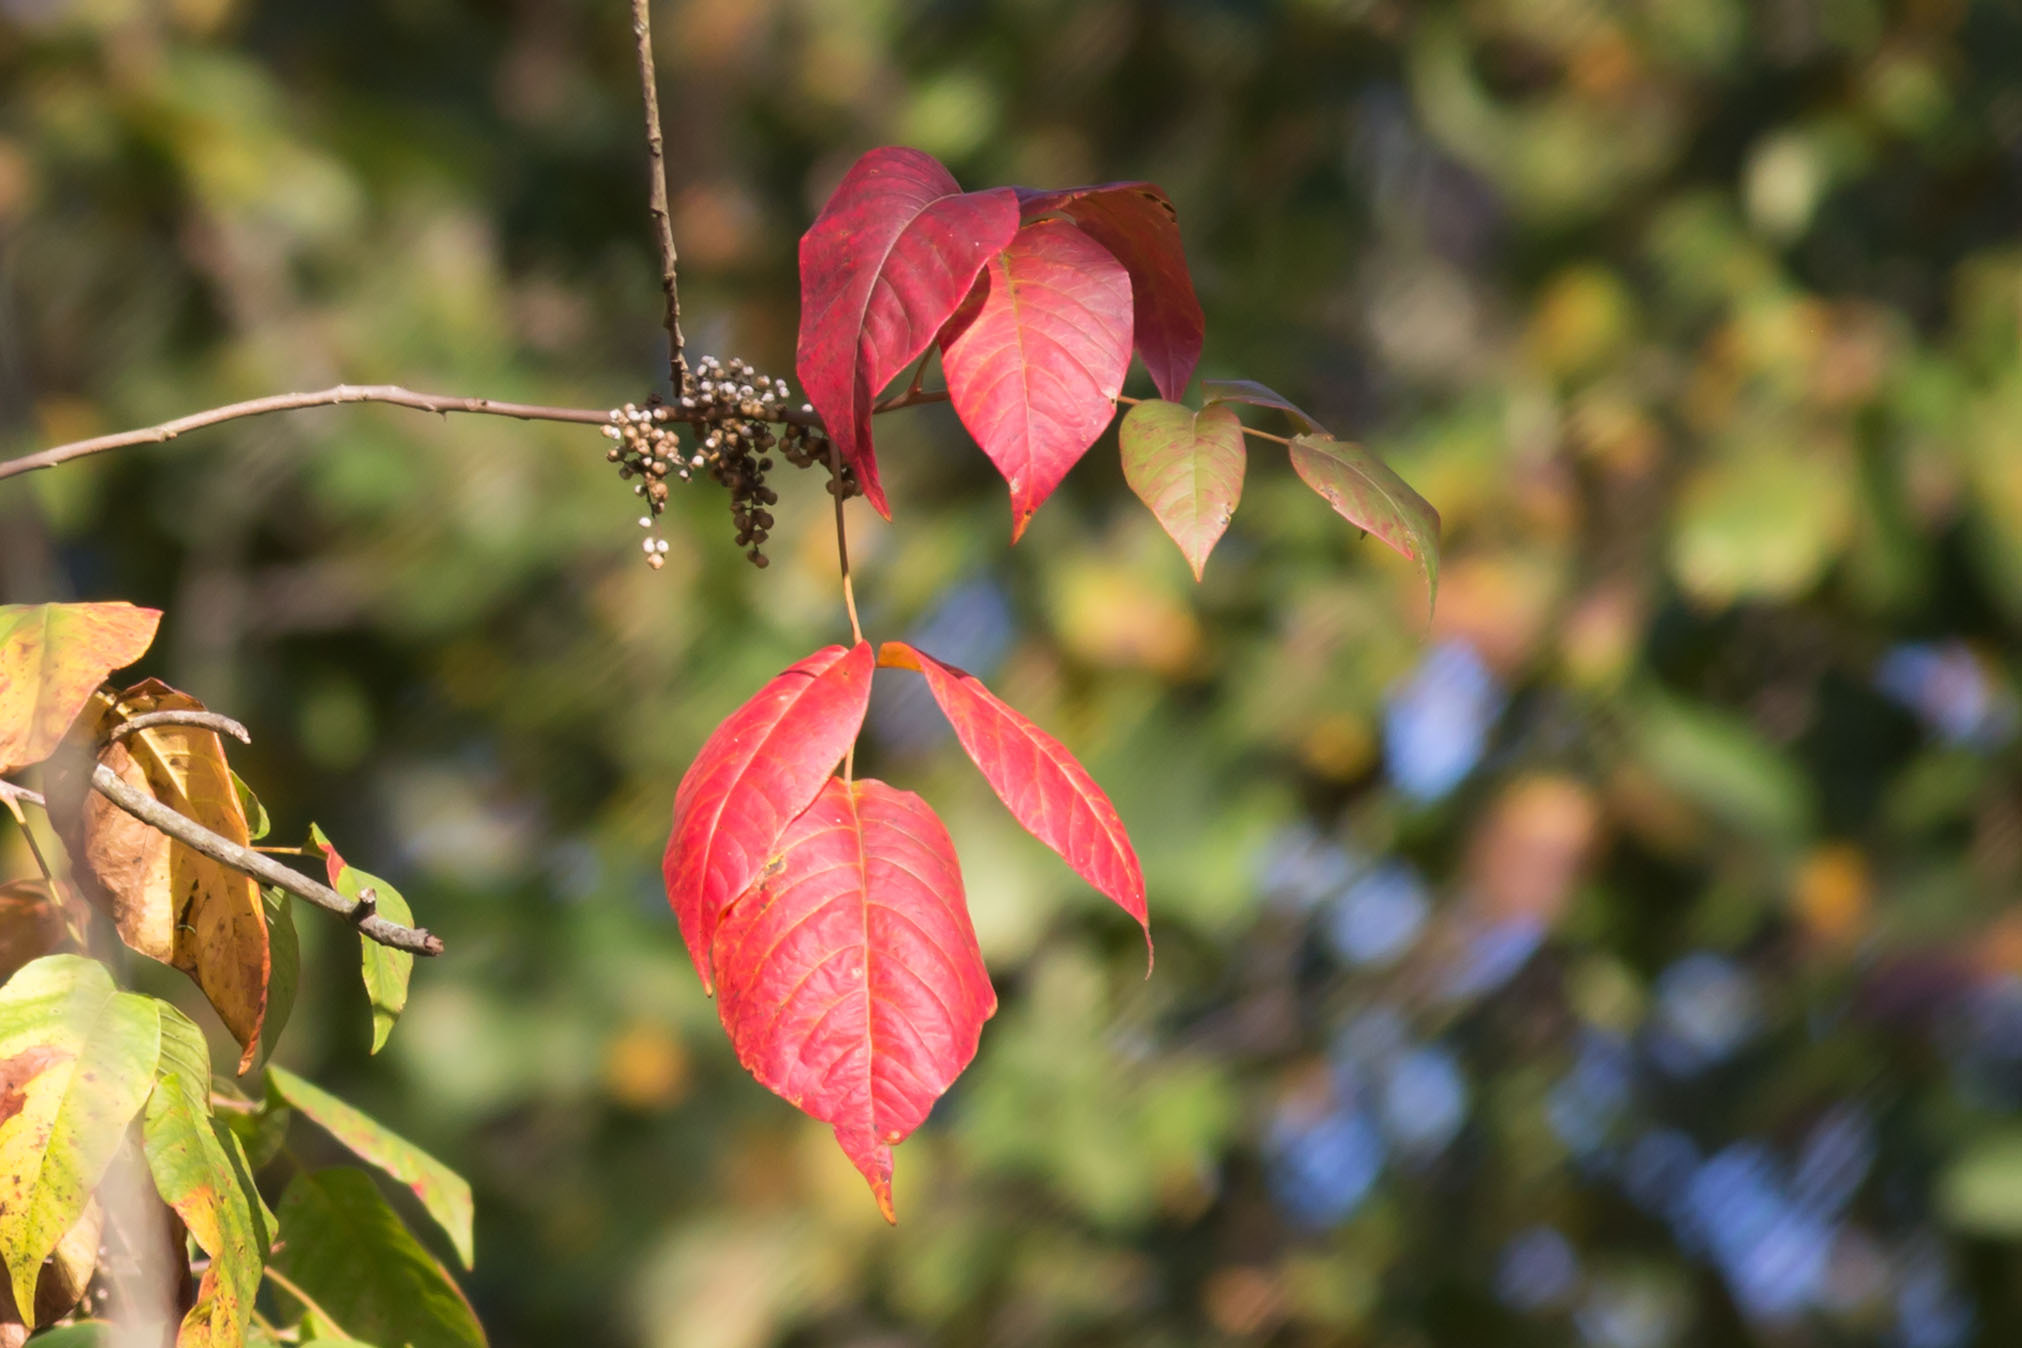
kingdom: Plantae
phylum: Tracheophyta
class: Magnoliopsida
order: Sapindales
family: Anacardiaceae
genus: Toxicodendron
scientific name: Toxicodendron radicans
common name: Poison ivy
